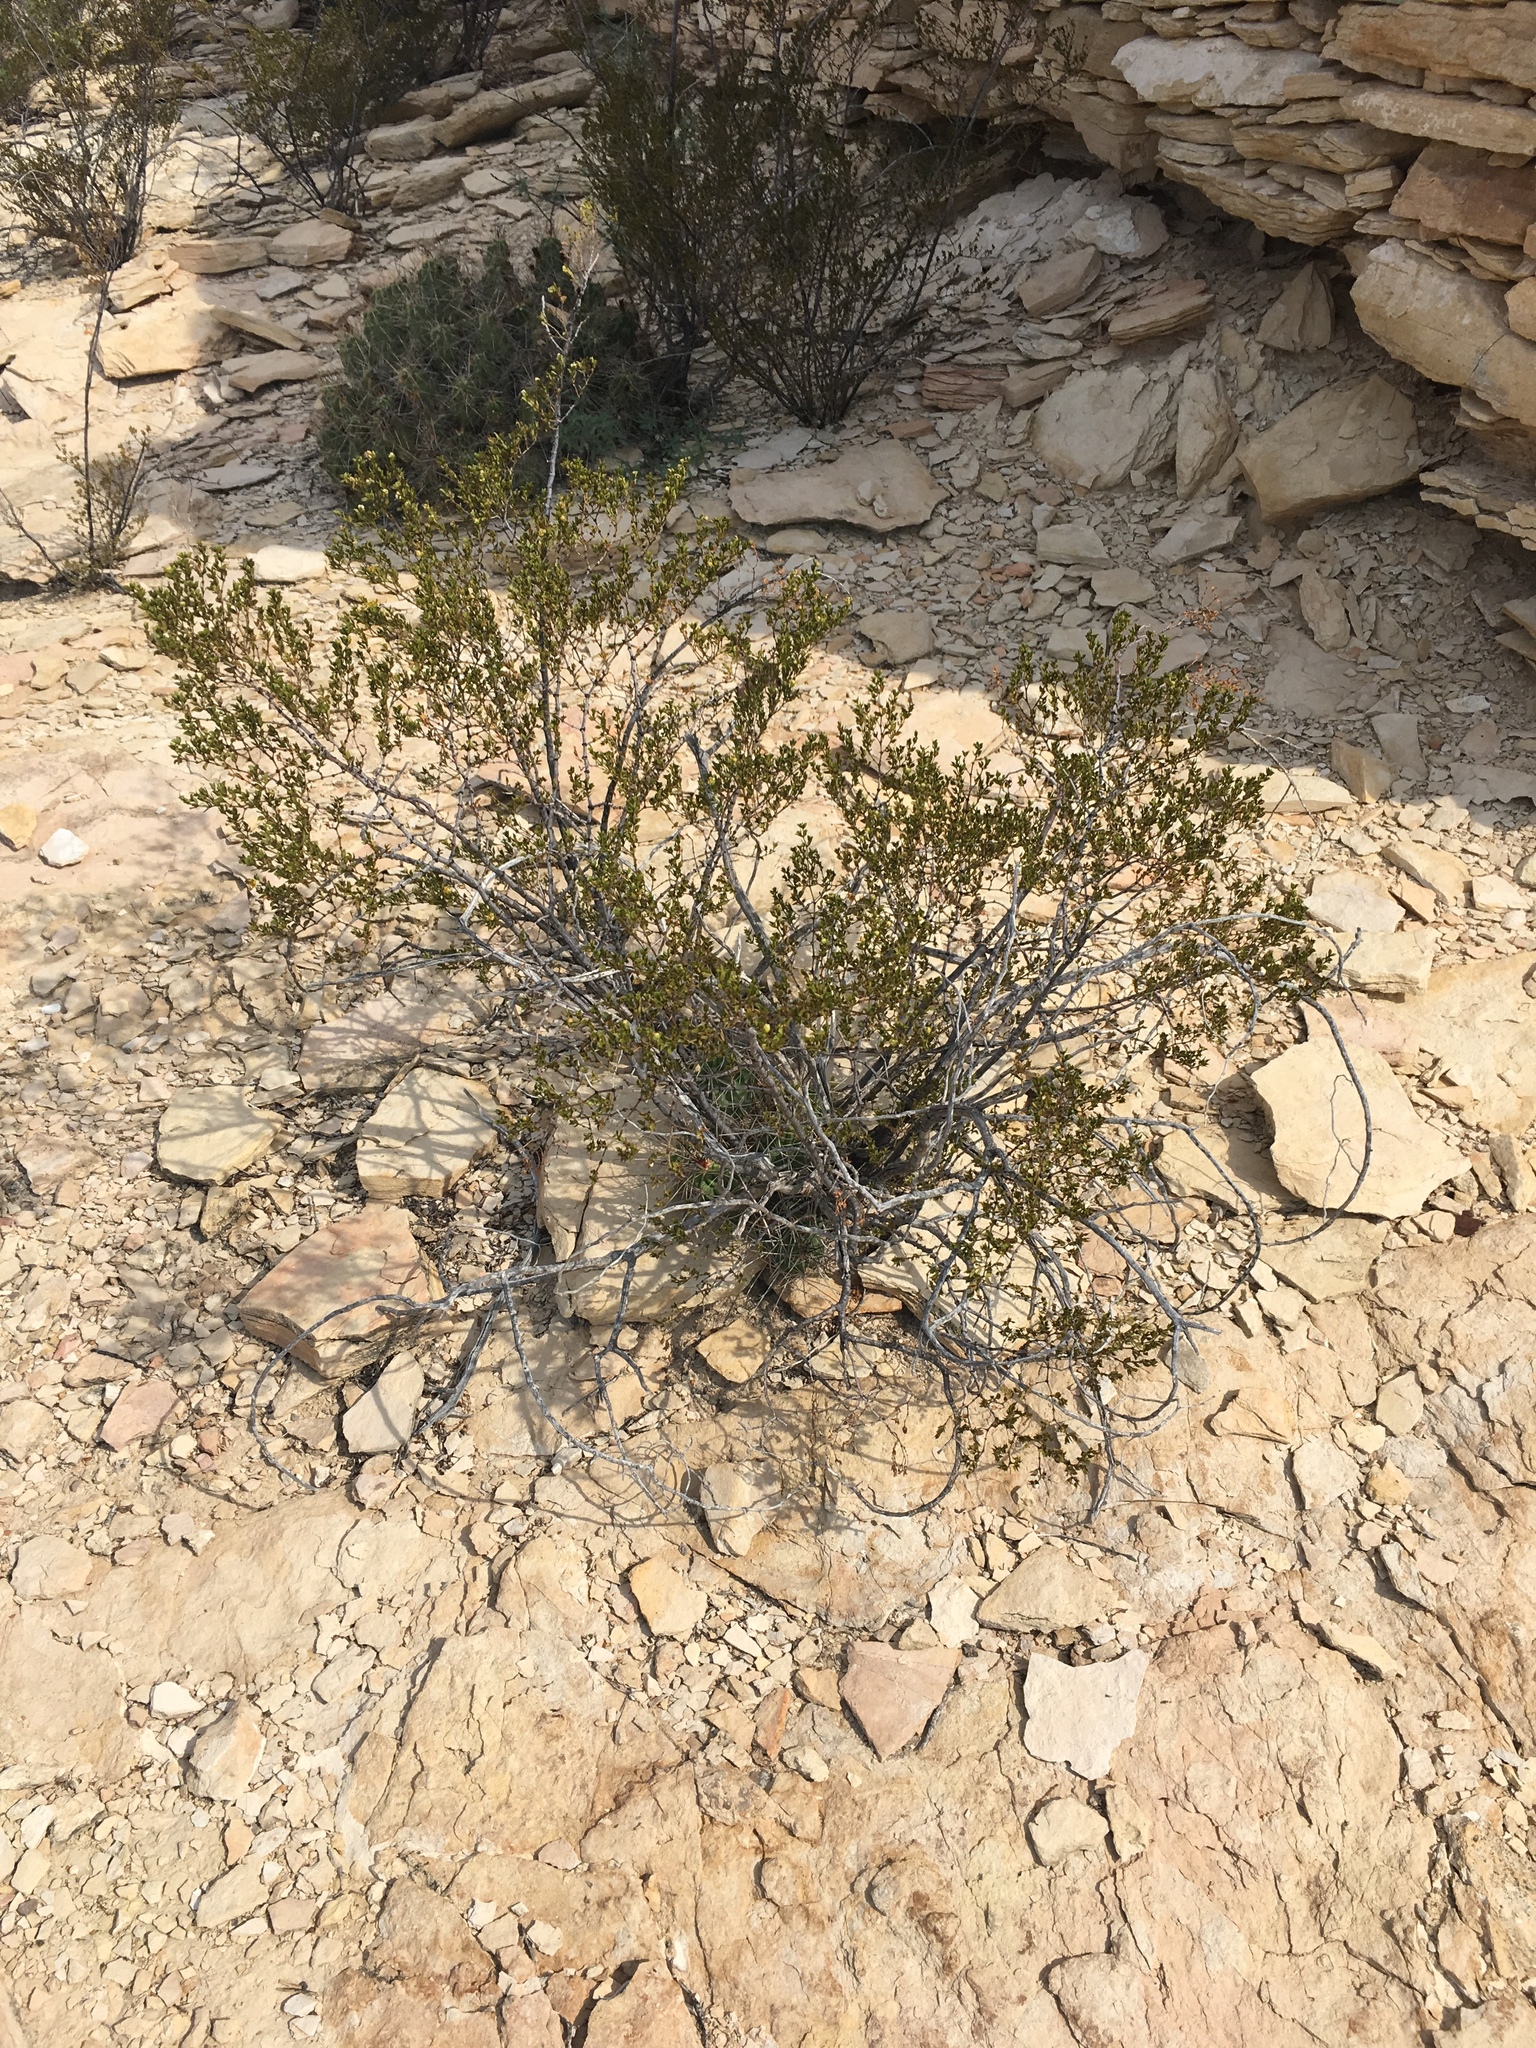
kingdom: Plantae
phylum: Tracheophyta
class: Magnoliopsida
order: Zygophyllales
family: Zygophyllaceae
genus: Larrea
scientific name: Larrea tridentata
